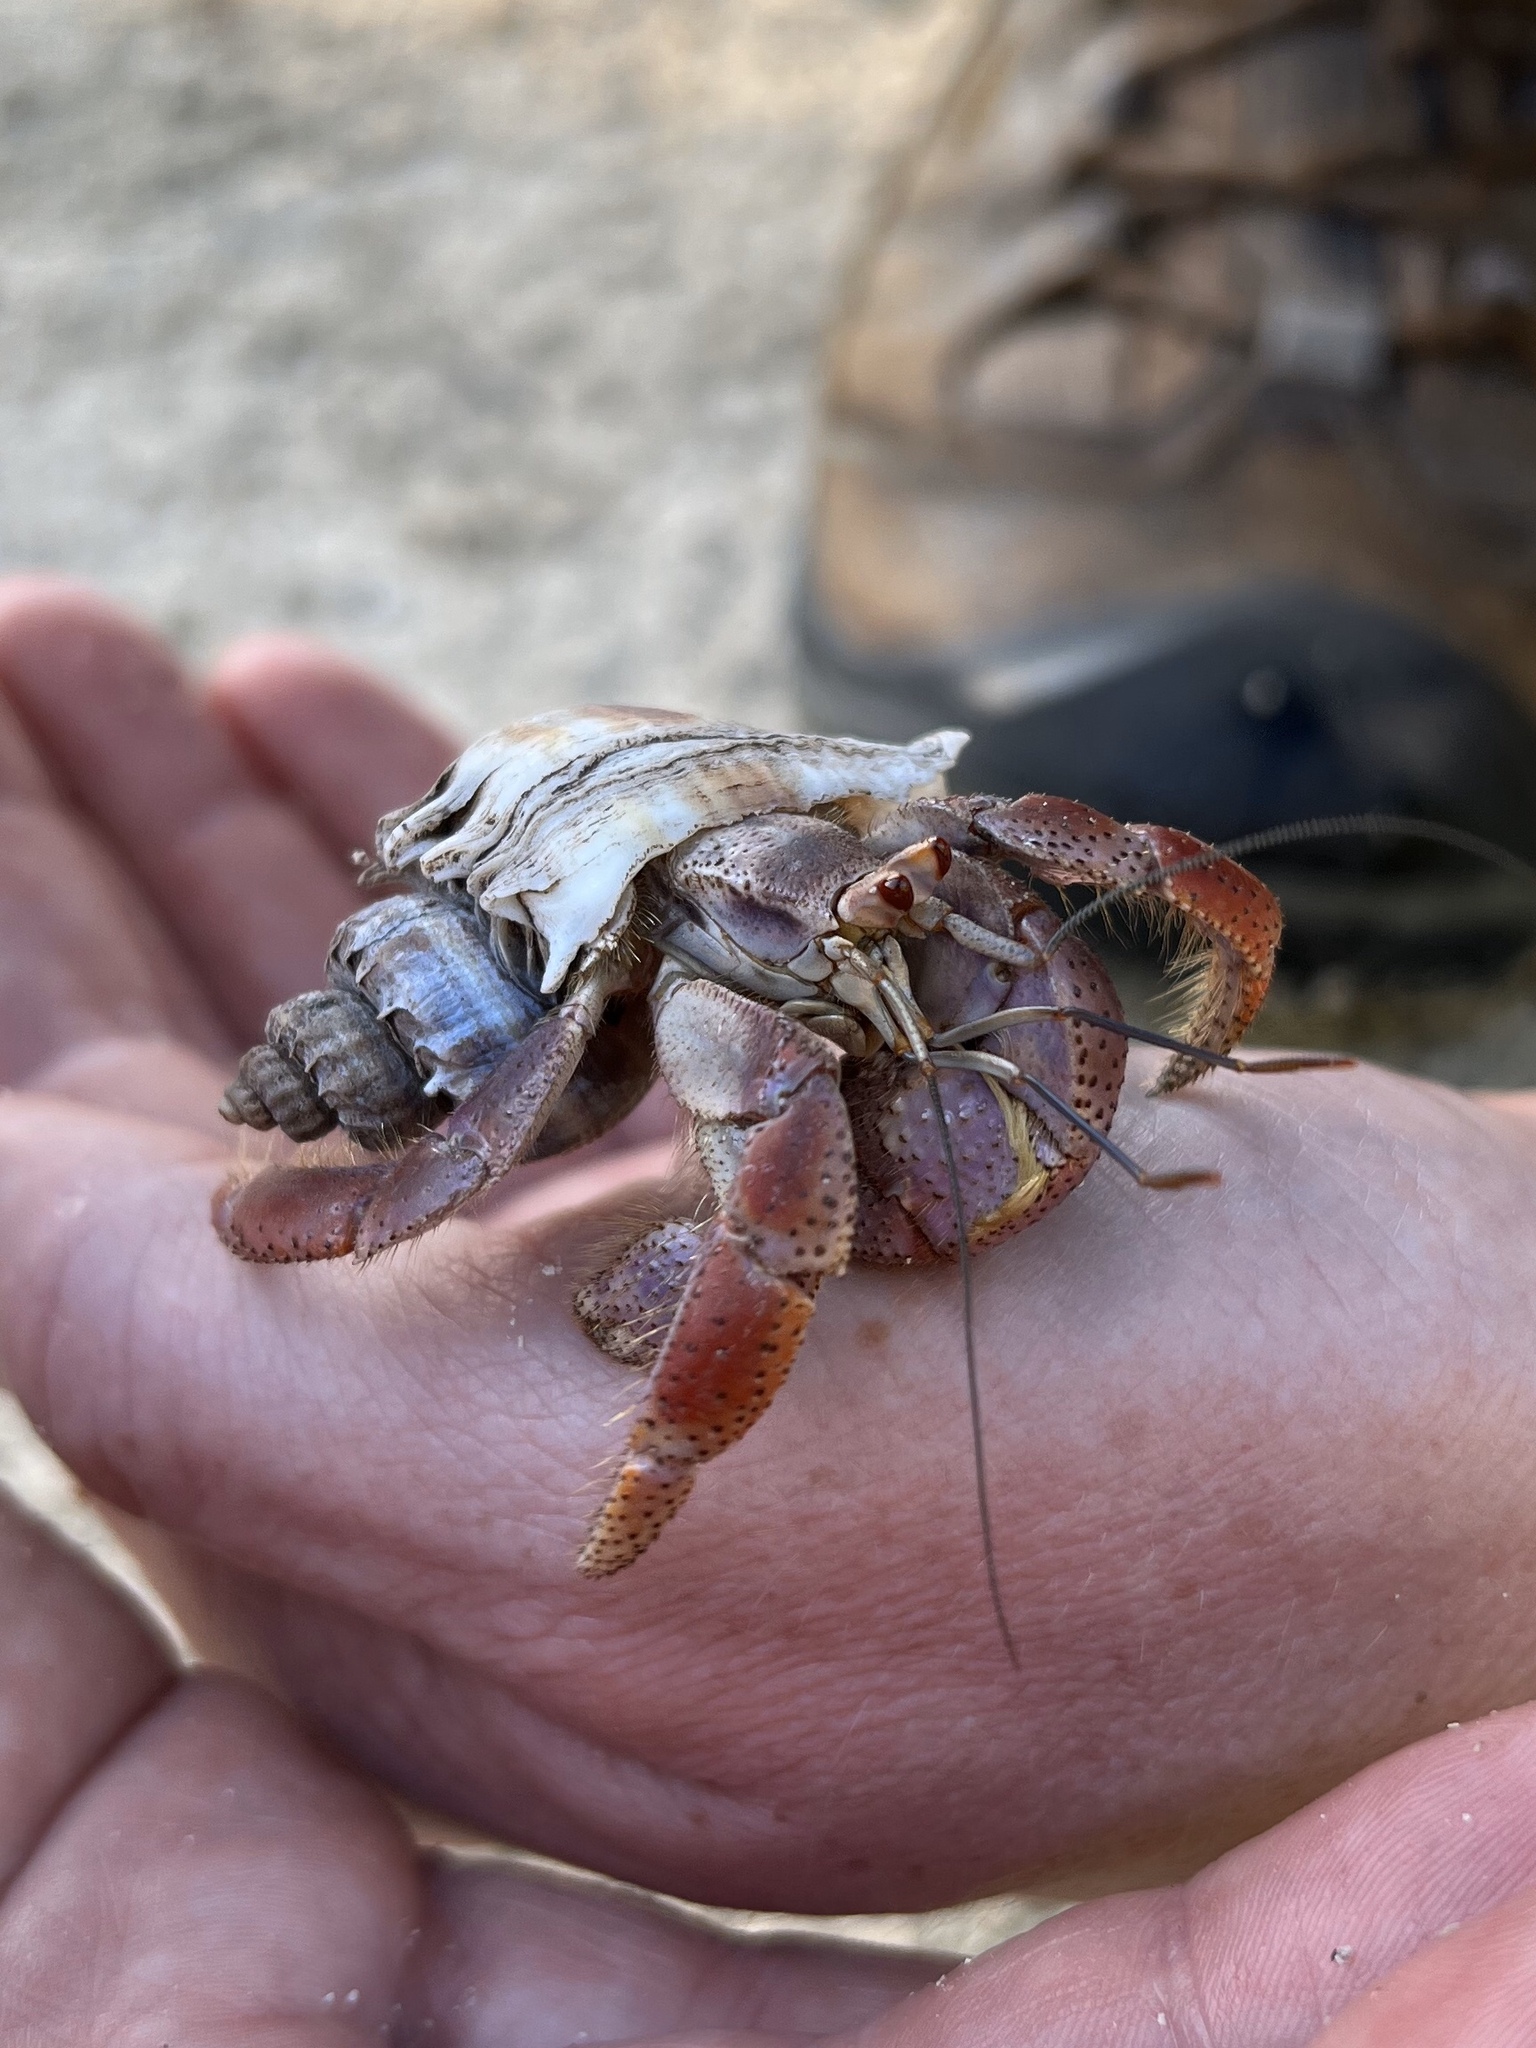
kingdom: Animalia
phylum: Arthropoda
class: Malacostraca
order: Decapoda
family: Coenobitidae
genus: Coenobita
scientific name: Coenobita clypeatus
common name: Caribbean hermit crab
